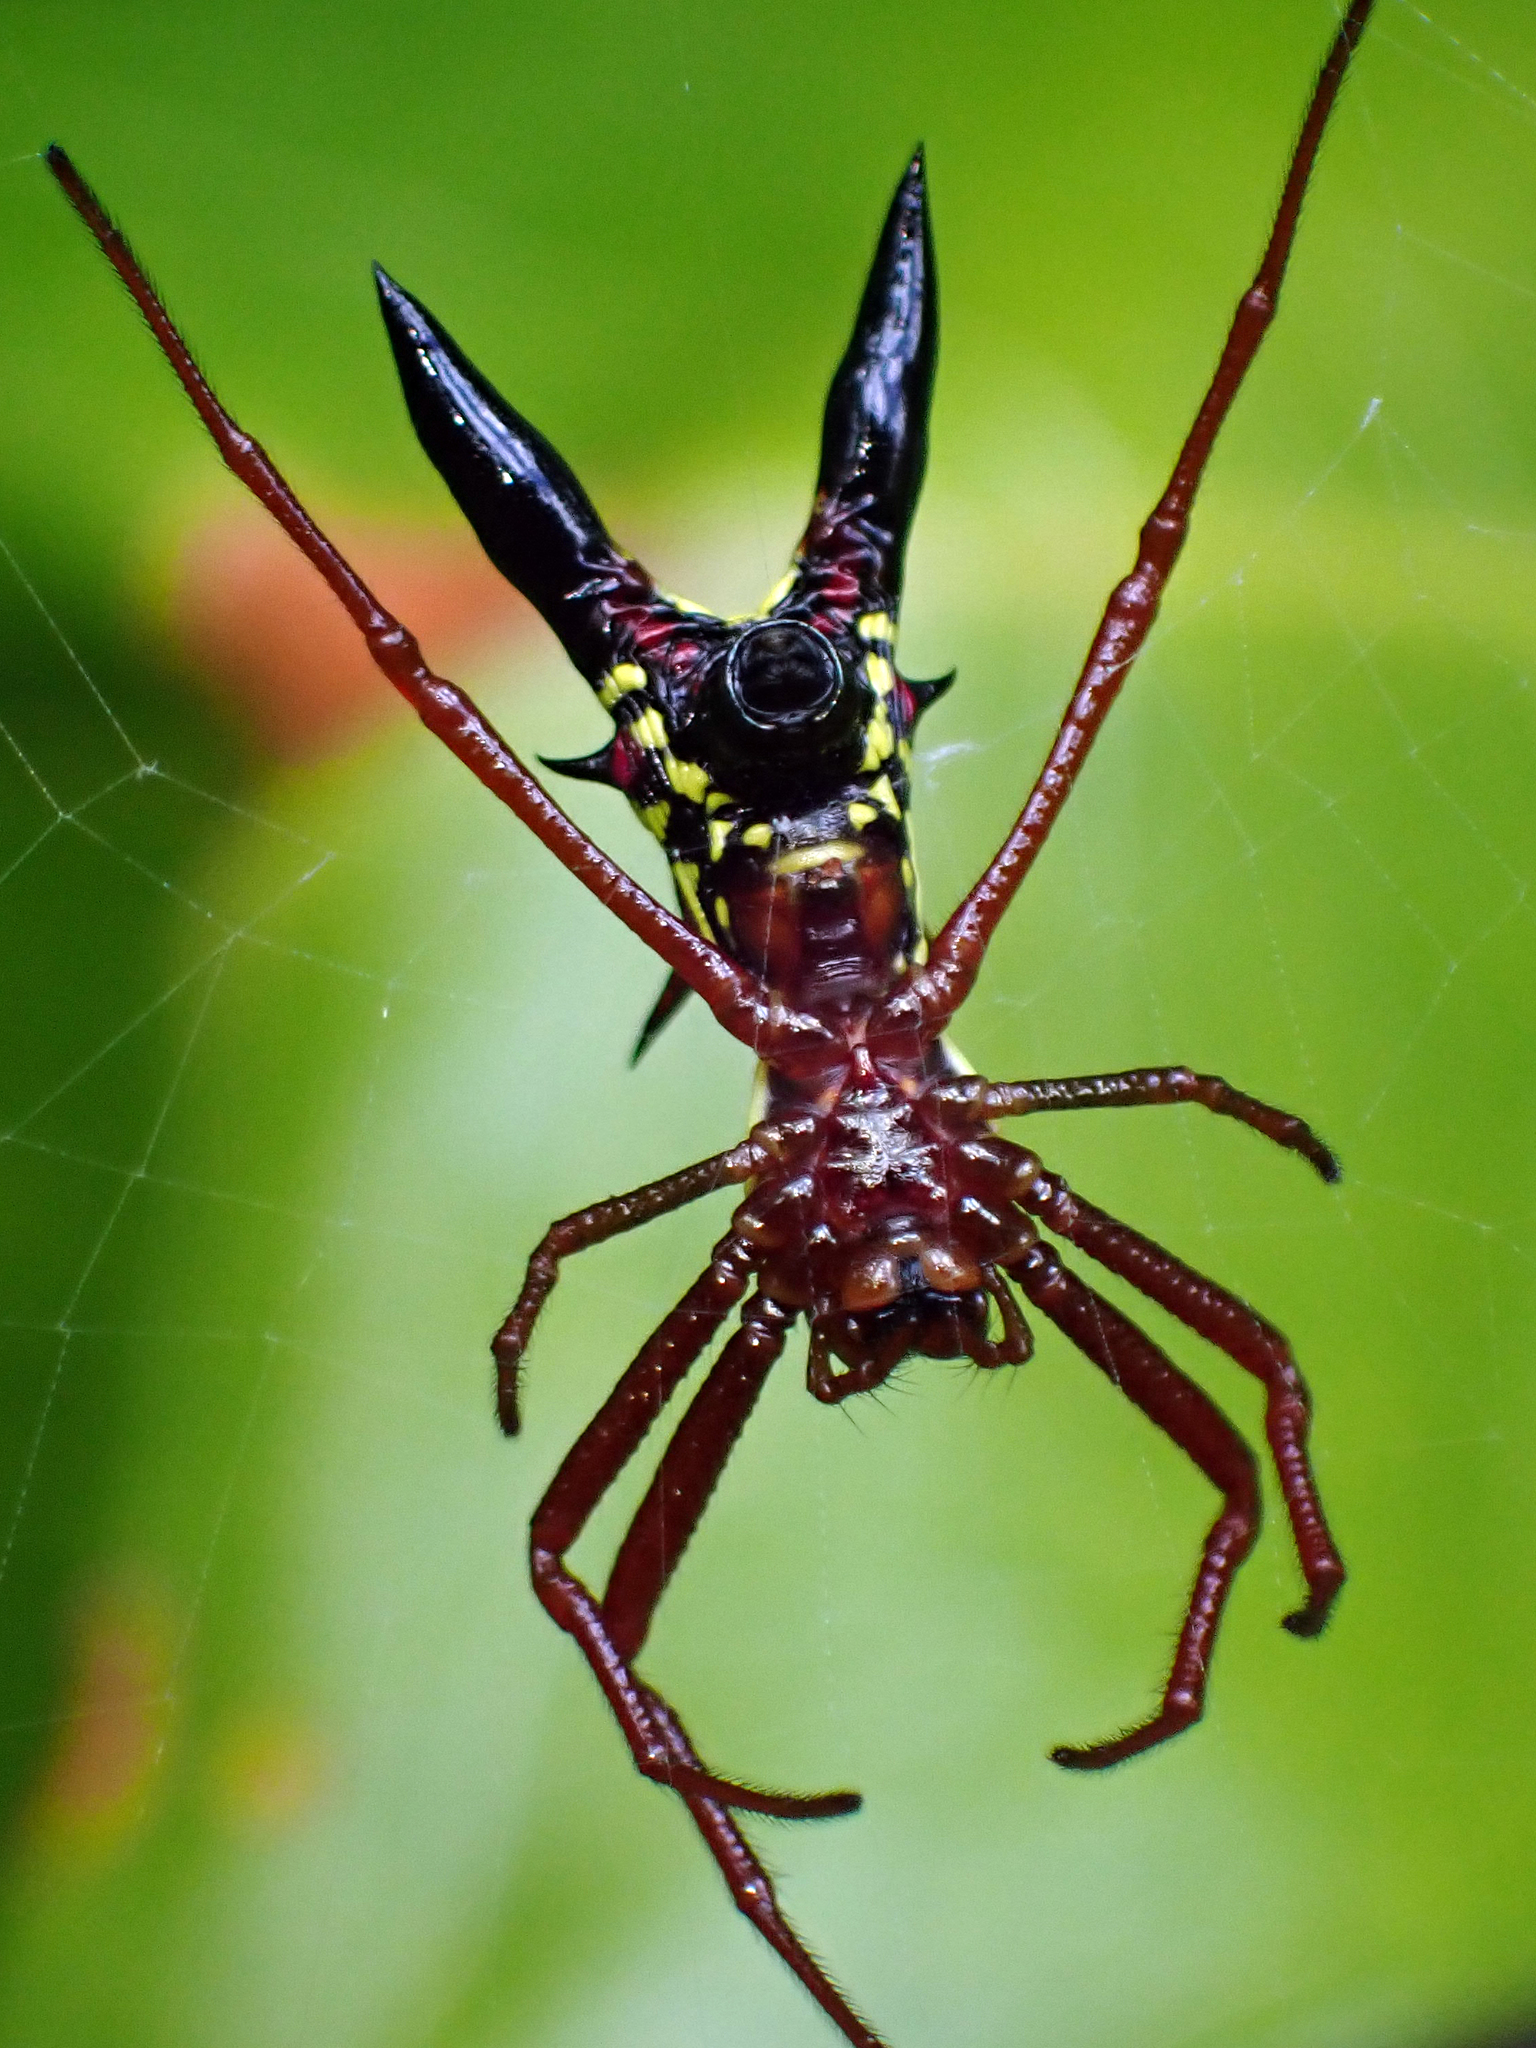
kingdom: Animalia
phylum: Arthropoda
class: Arachnida
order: Araneae
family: Araneidae
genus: Micrathena
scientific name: Micrathena sagittata
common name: Orb weavers
